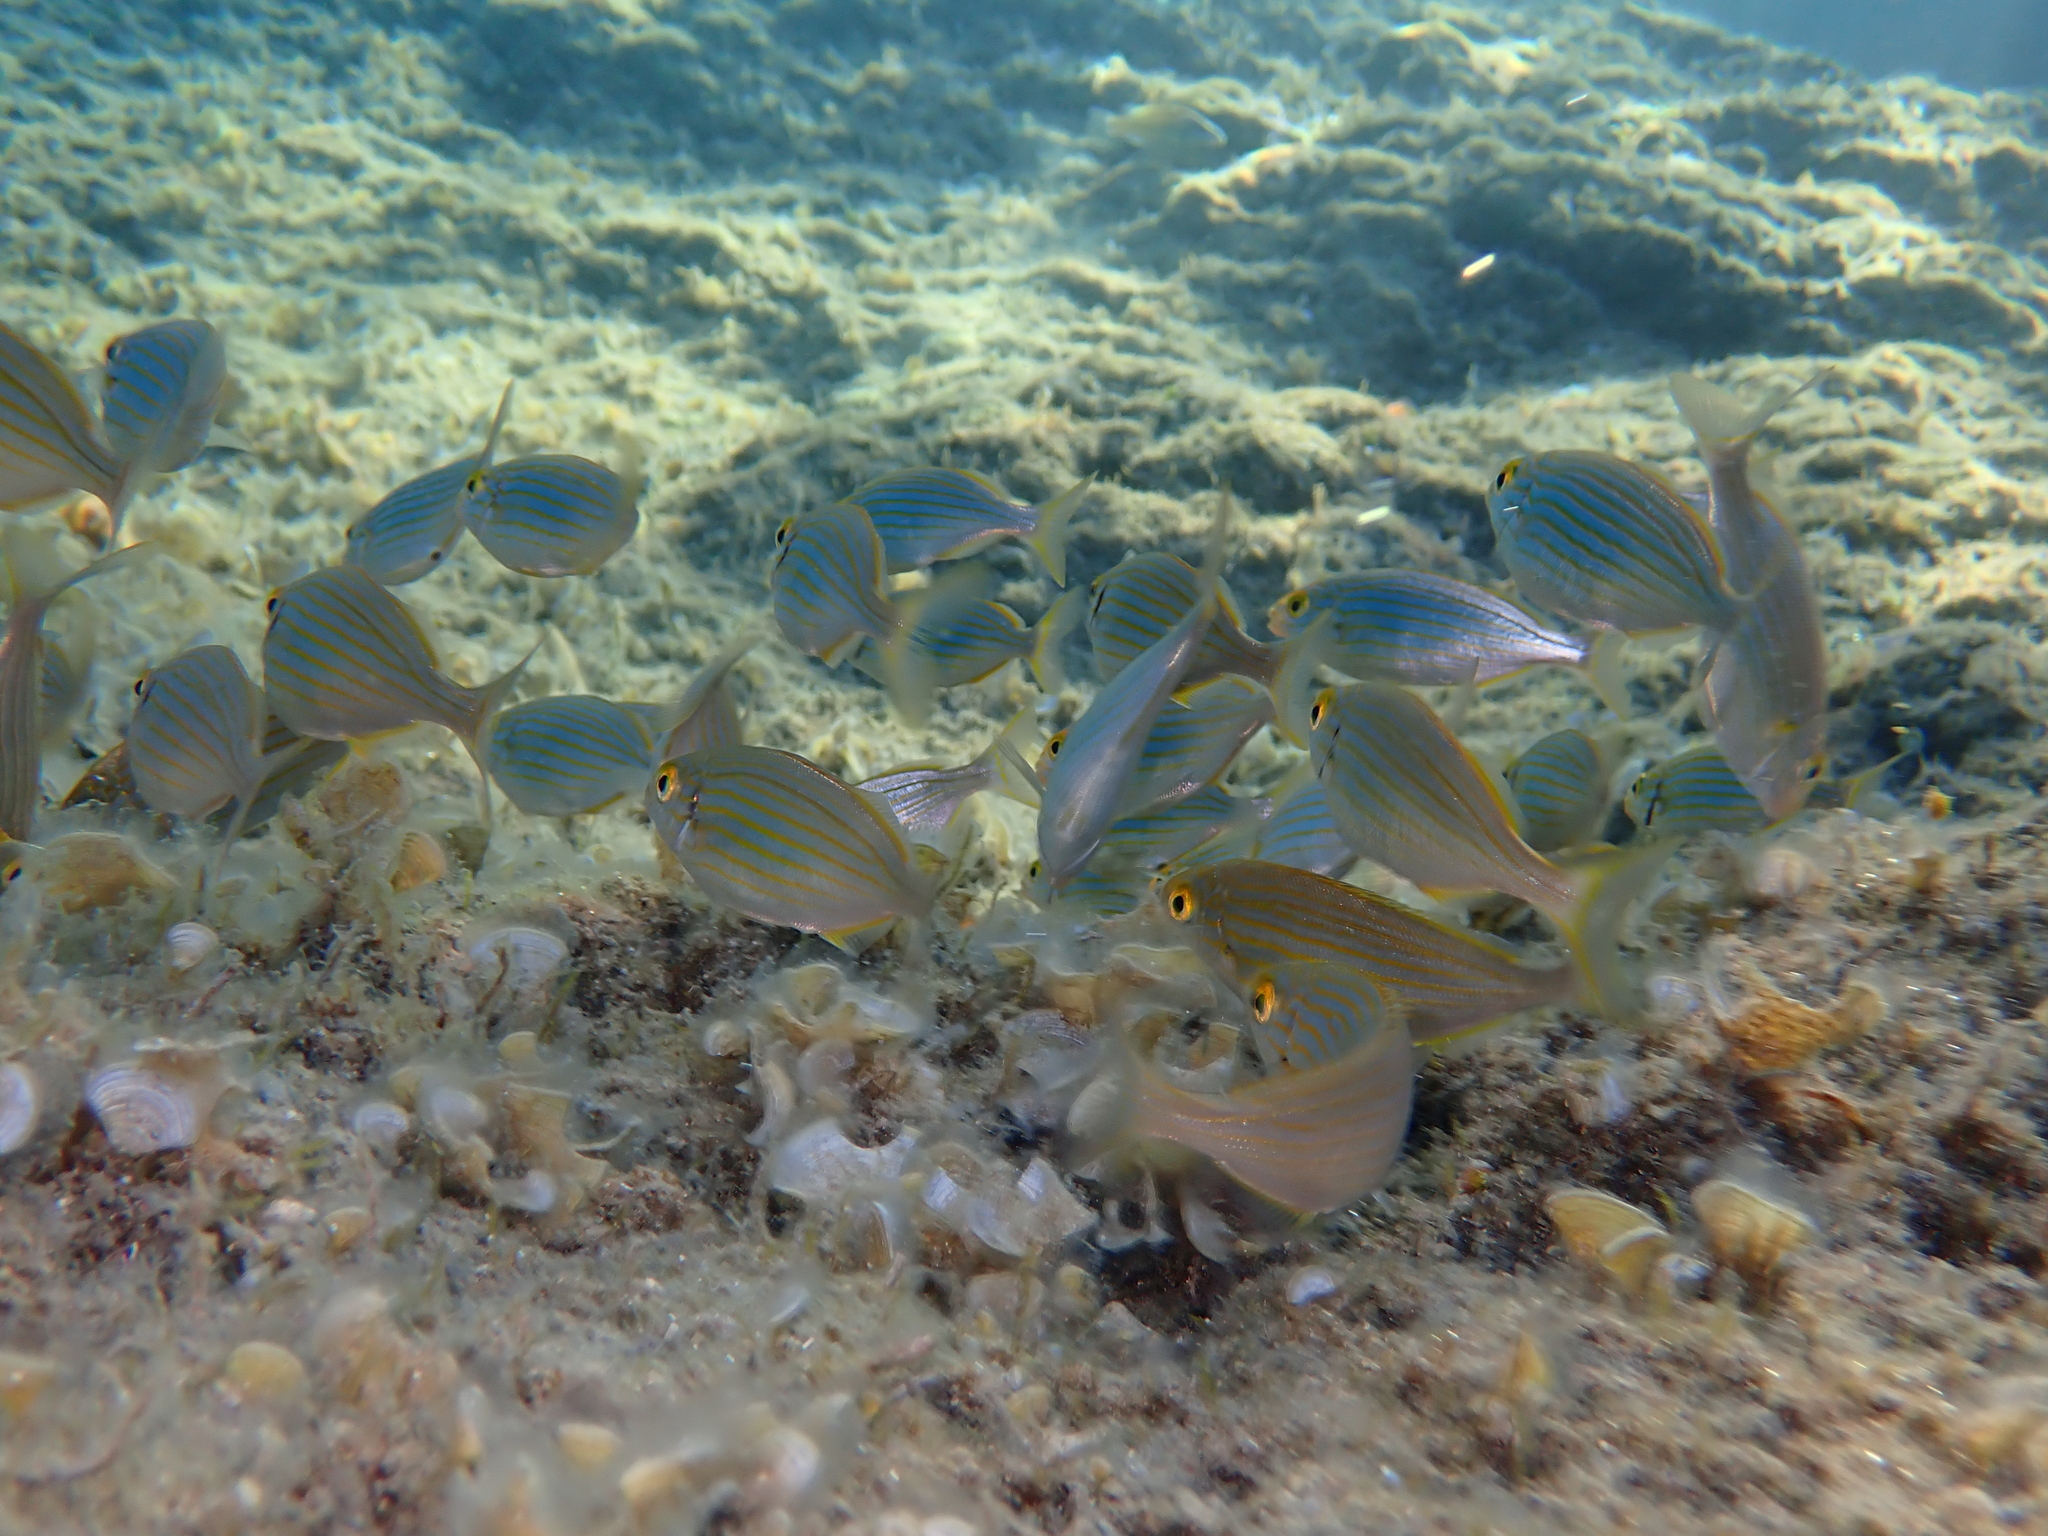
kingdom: Animalia
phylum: Chordata
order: Perciformes
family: Sparidae
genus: Sarpa
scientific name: Sarpa salpa
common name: Salema
